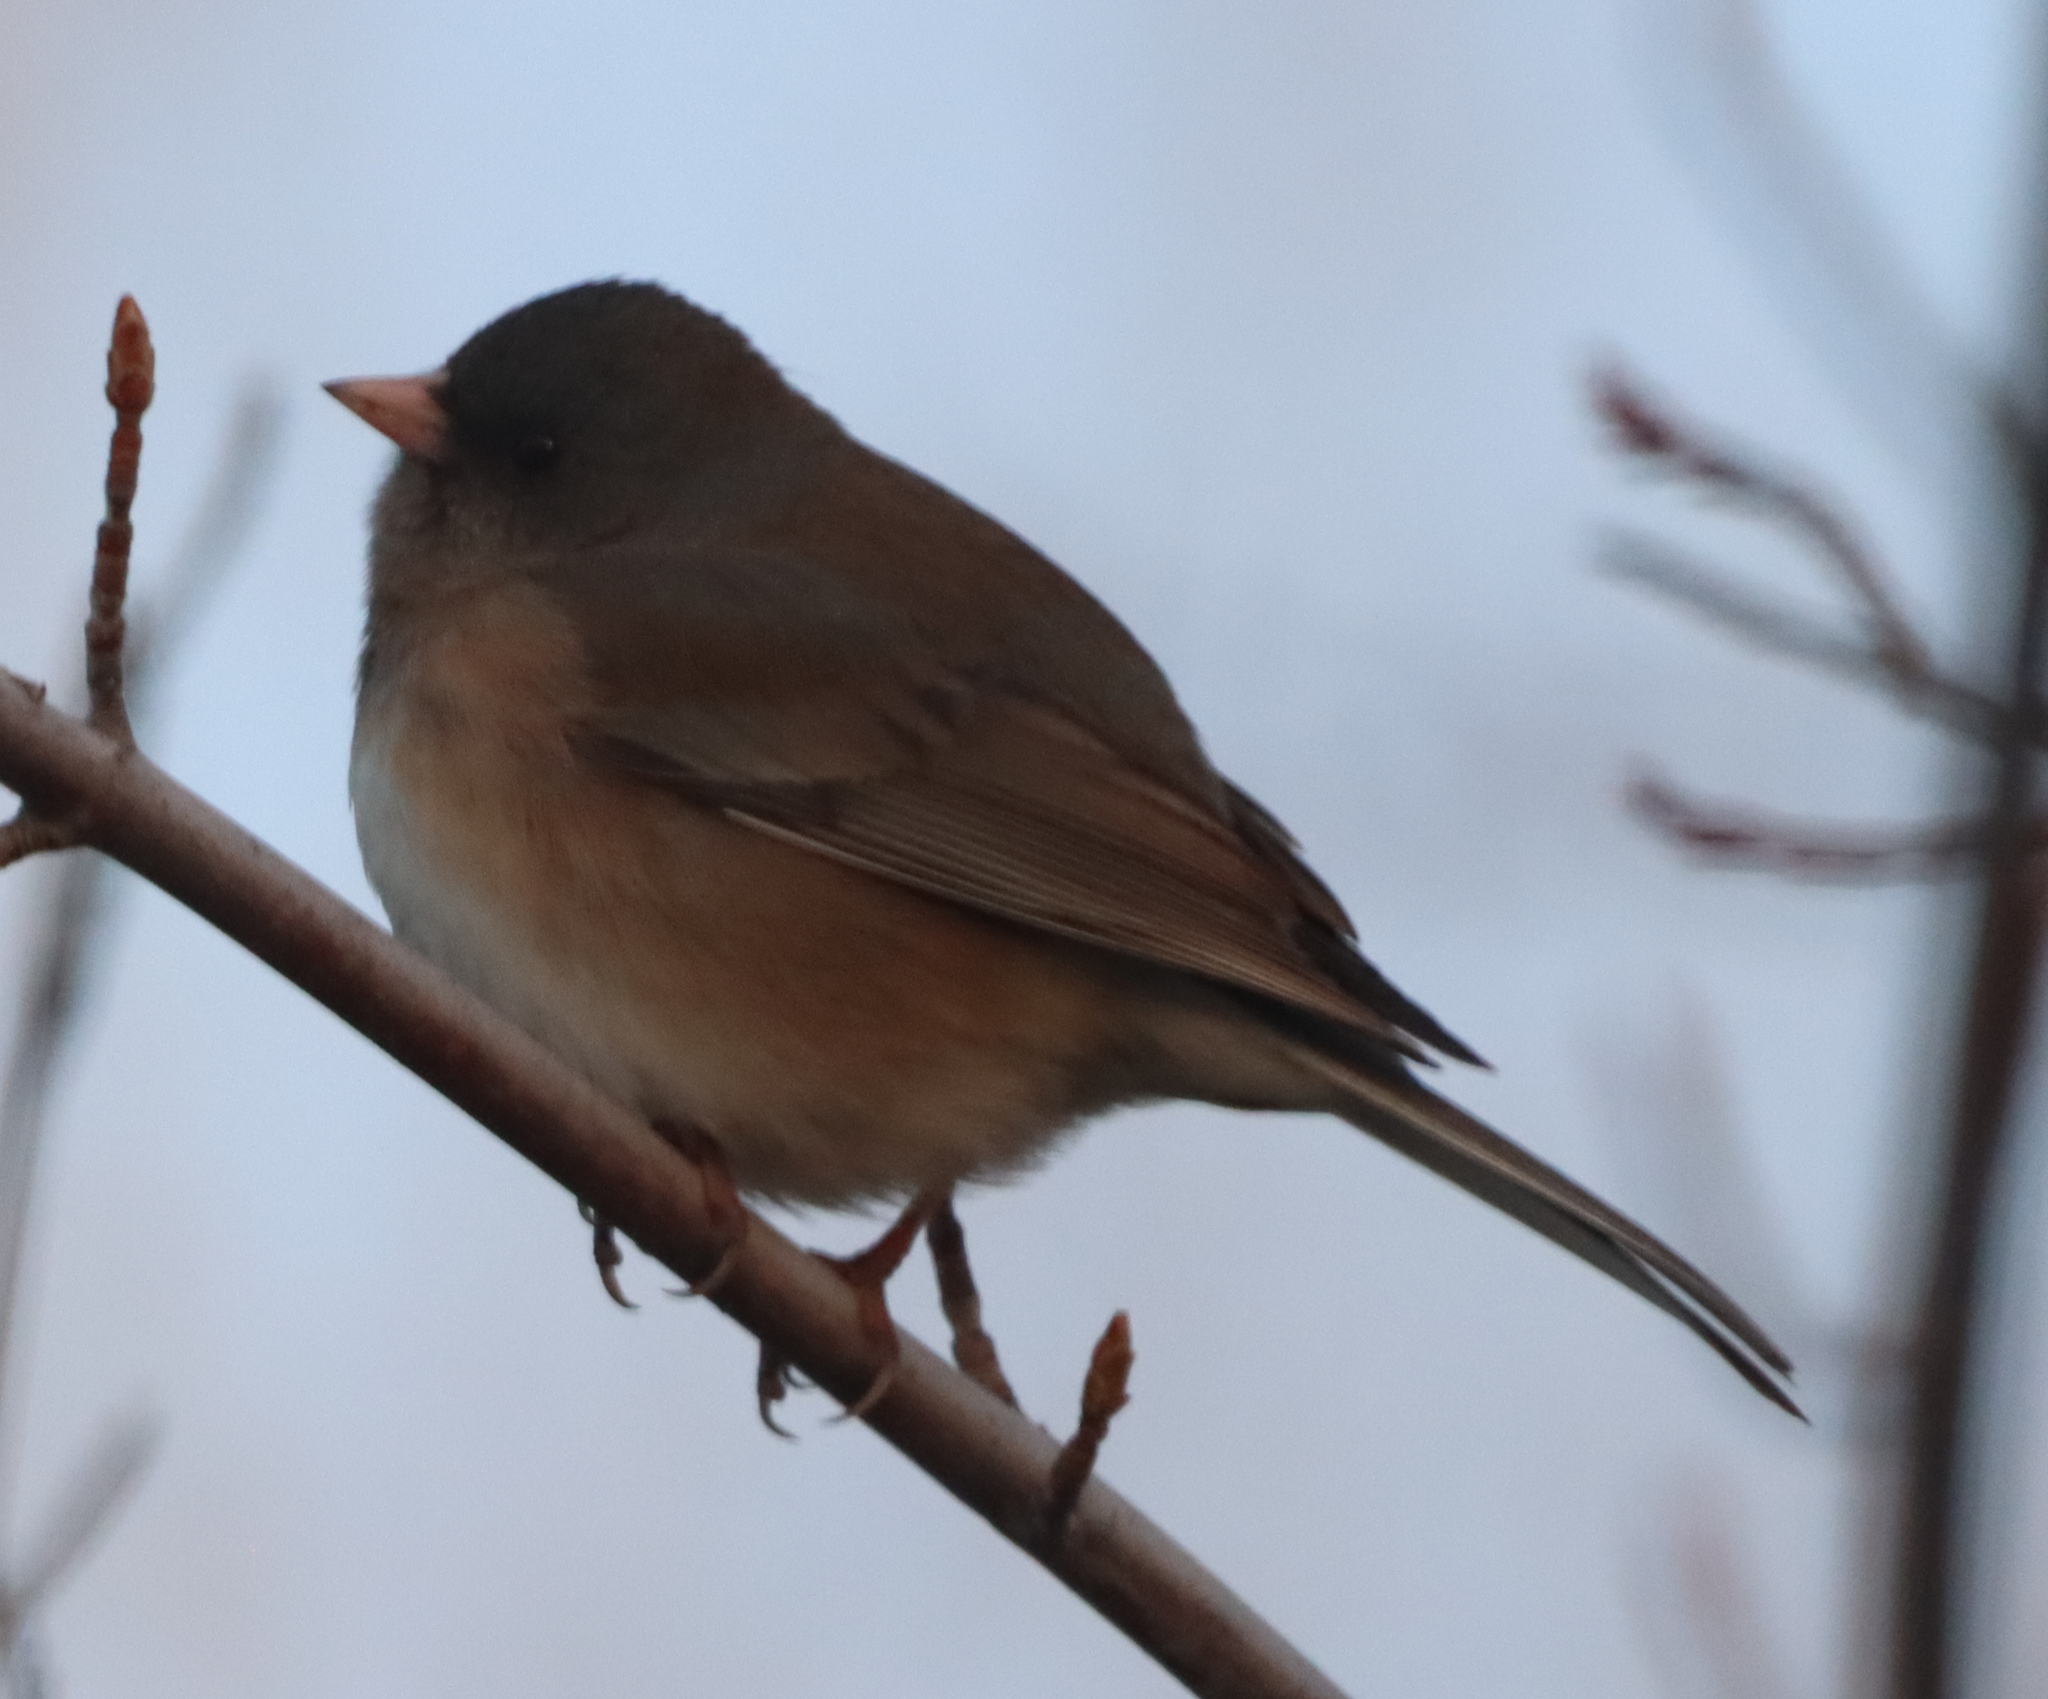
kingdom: Animalia
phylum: Chordata
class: Aves
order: Passeriformes
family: Passerellidae
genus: Junco
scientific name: Junco hyemalis
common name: Dark-eyed junco
